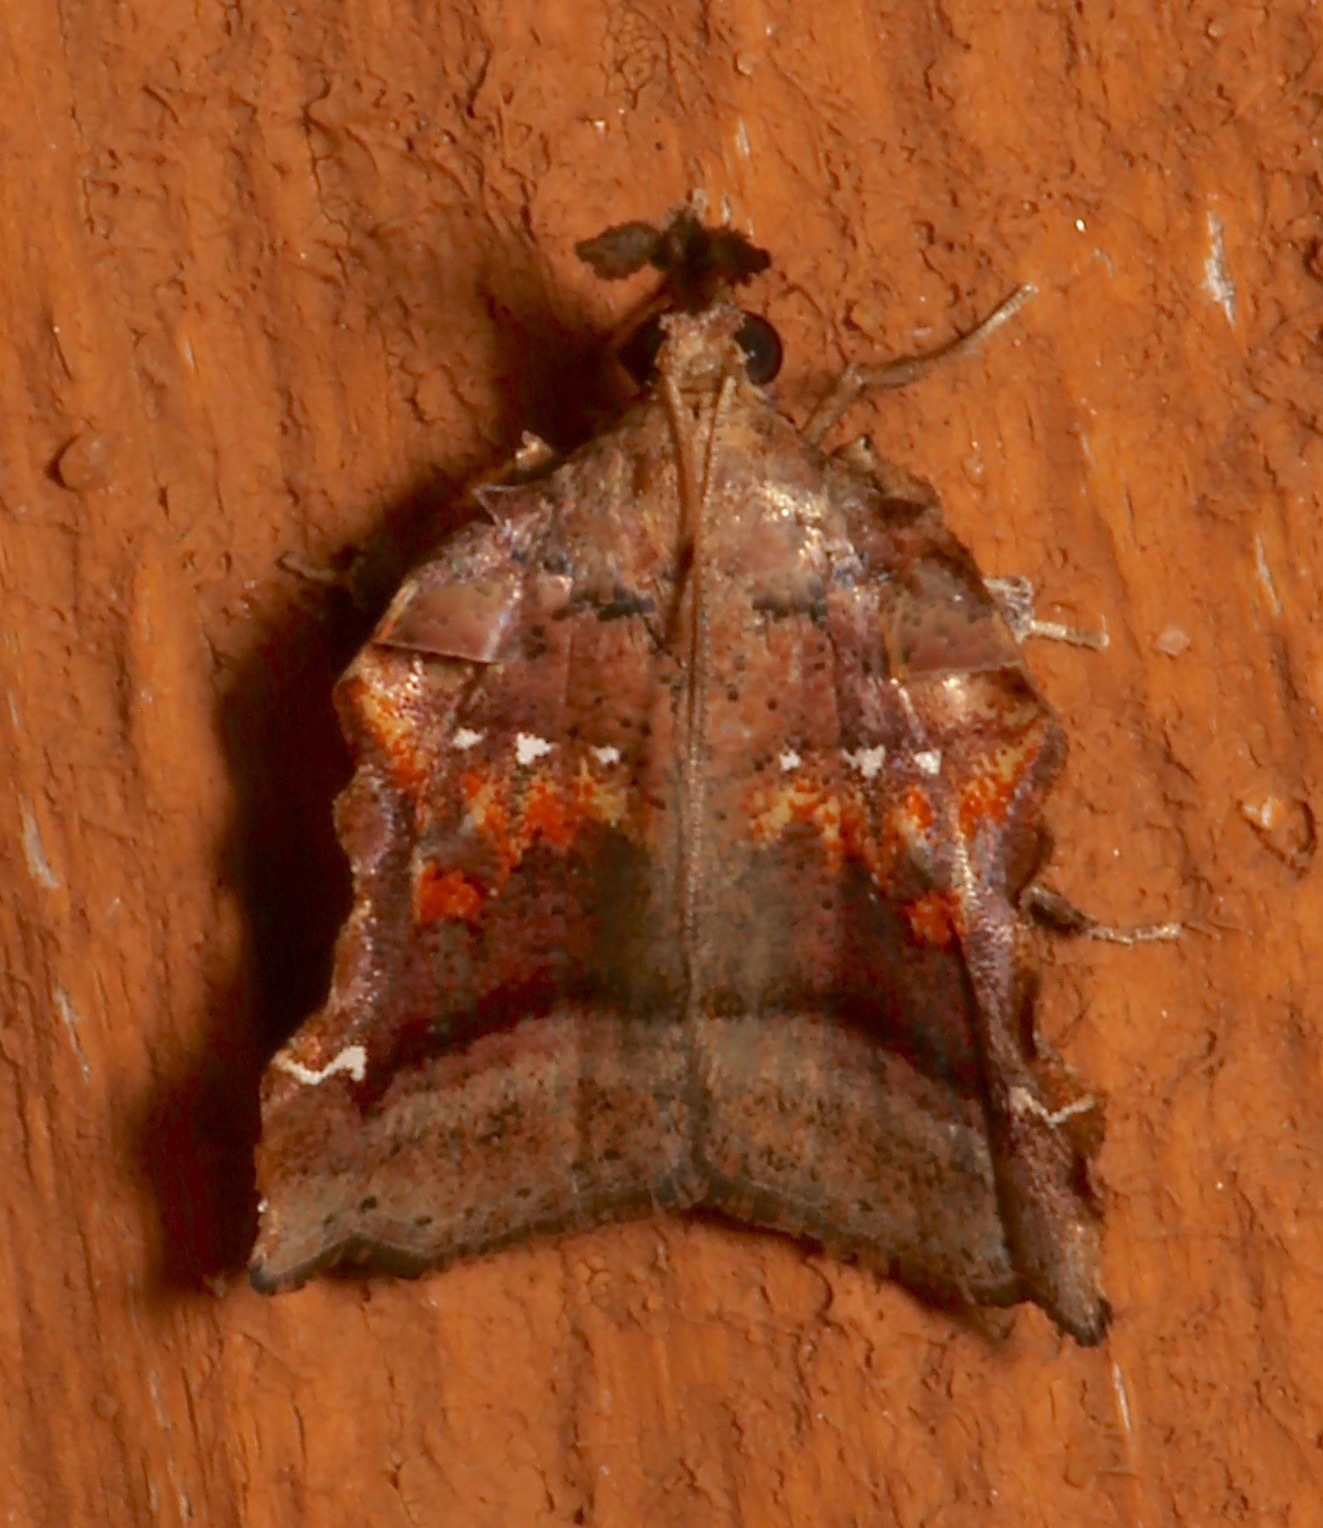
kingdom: Animalia
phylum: Arthropoda
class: Insecta
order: Lepidoptera
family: Pyralidae
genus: Clydonopteron
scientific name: Clydonopteron sacculana
